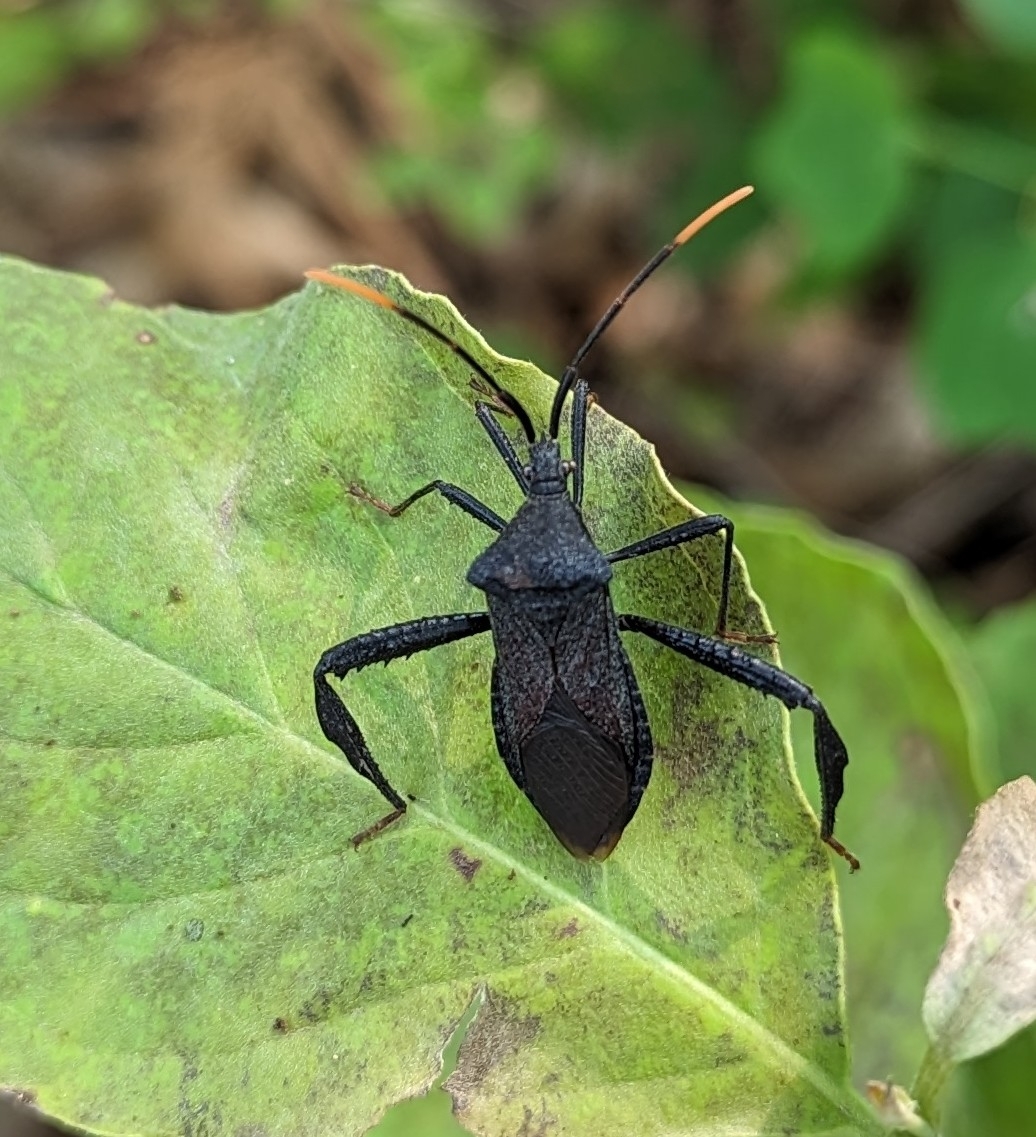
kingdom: Animalia
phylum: Arthropoda
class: Insecta
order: Hemiptera
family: Coreidae
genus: Acanthocephala
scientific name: Acanthocephala terminalis
